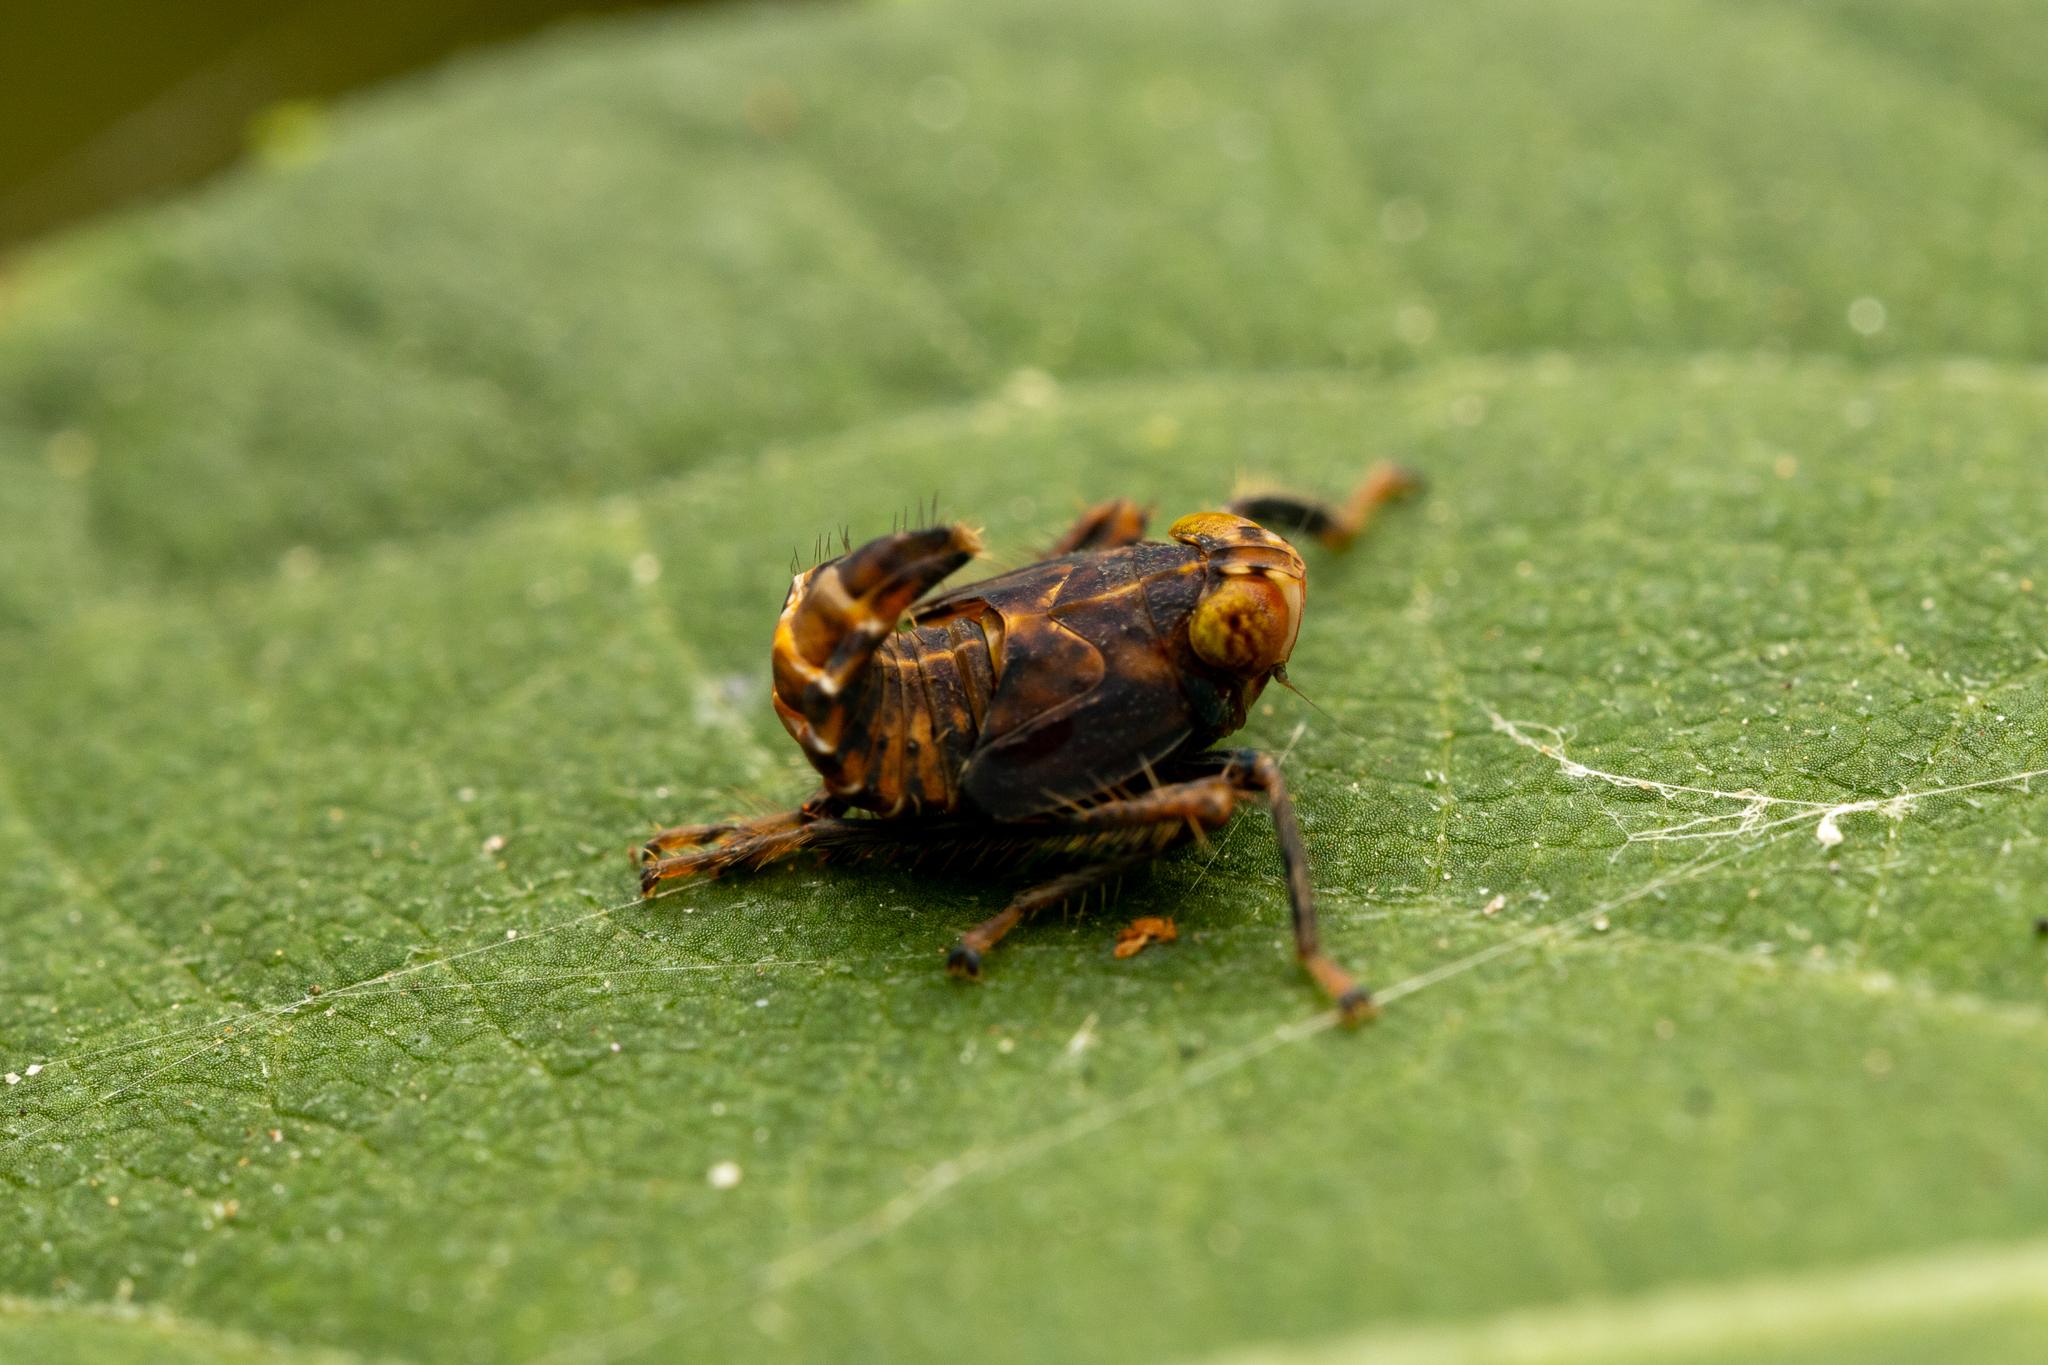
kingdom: Animalia
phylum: Arthropoda
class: Insecta
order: Hemiptera
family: Cicadellidae
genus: Jikradia
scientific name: Jikradia olitoria
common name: Coppery leafhopper
